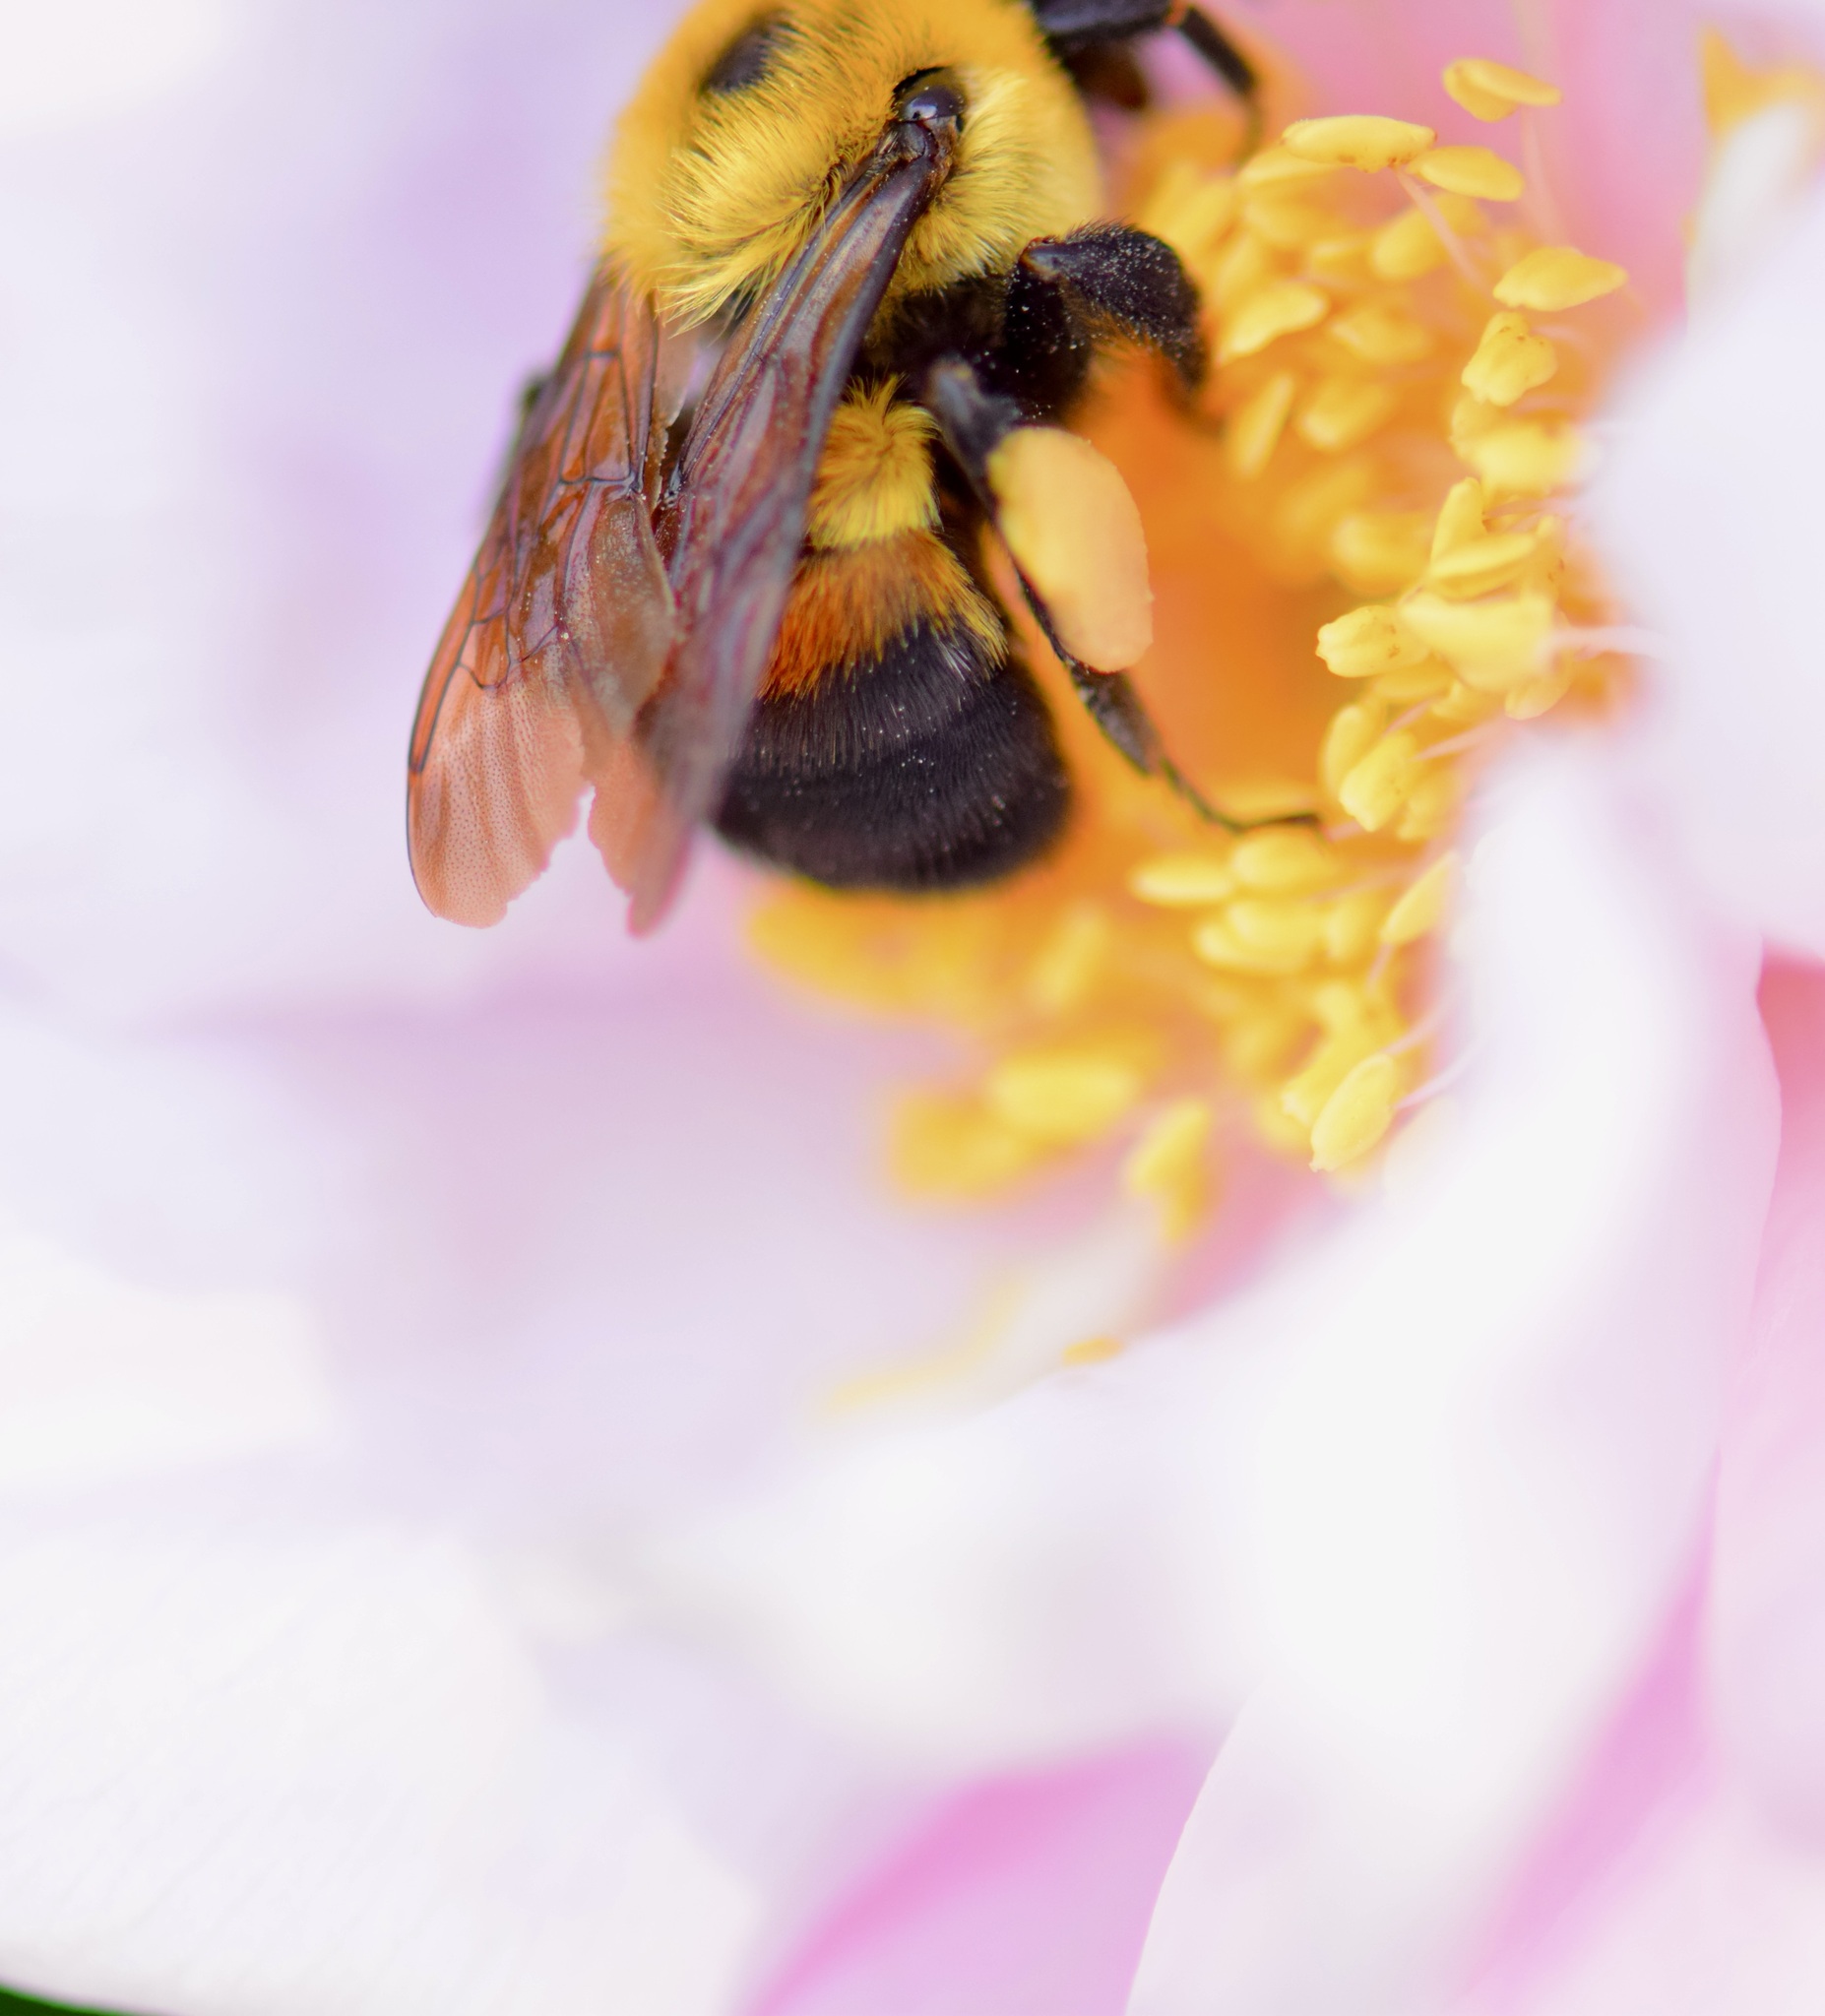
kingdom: Animalia
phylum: Arthropoda
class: Insecta
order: Hymenoptera
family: Apidae
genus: Bombus
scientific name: Bombus griseocollis
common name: Brown-belted bumble bee
